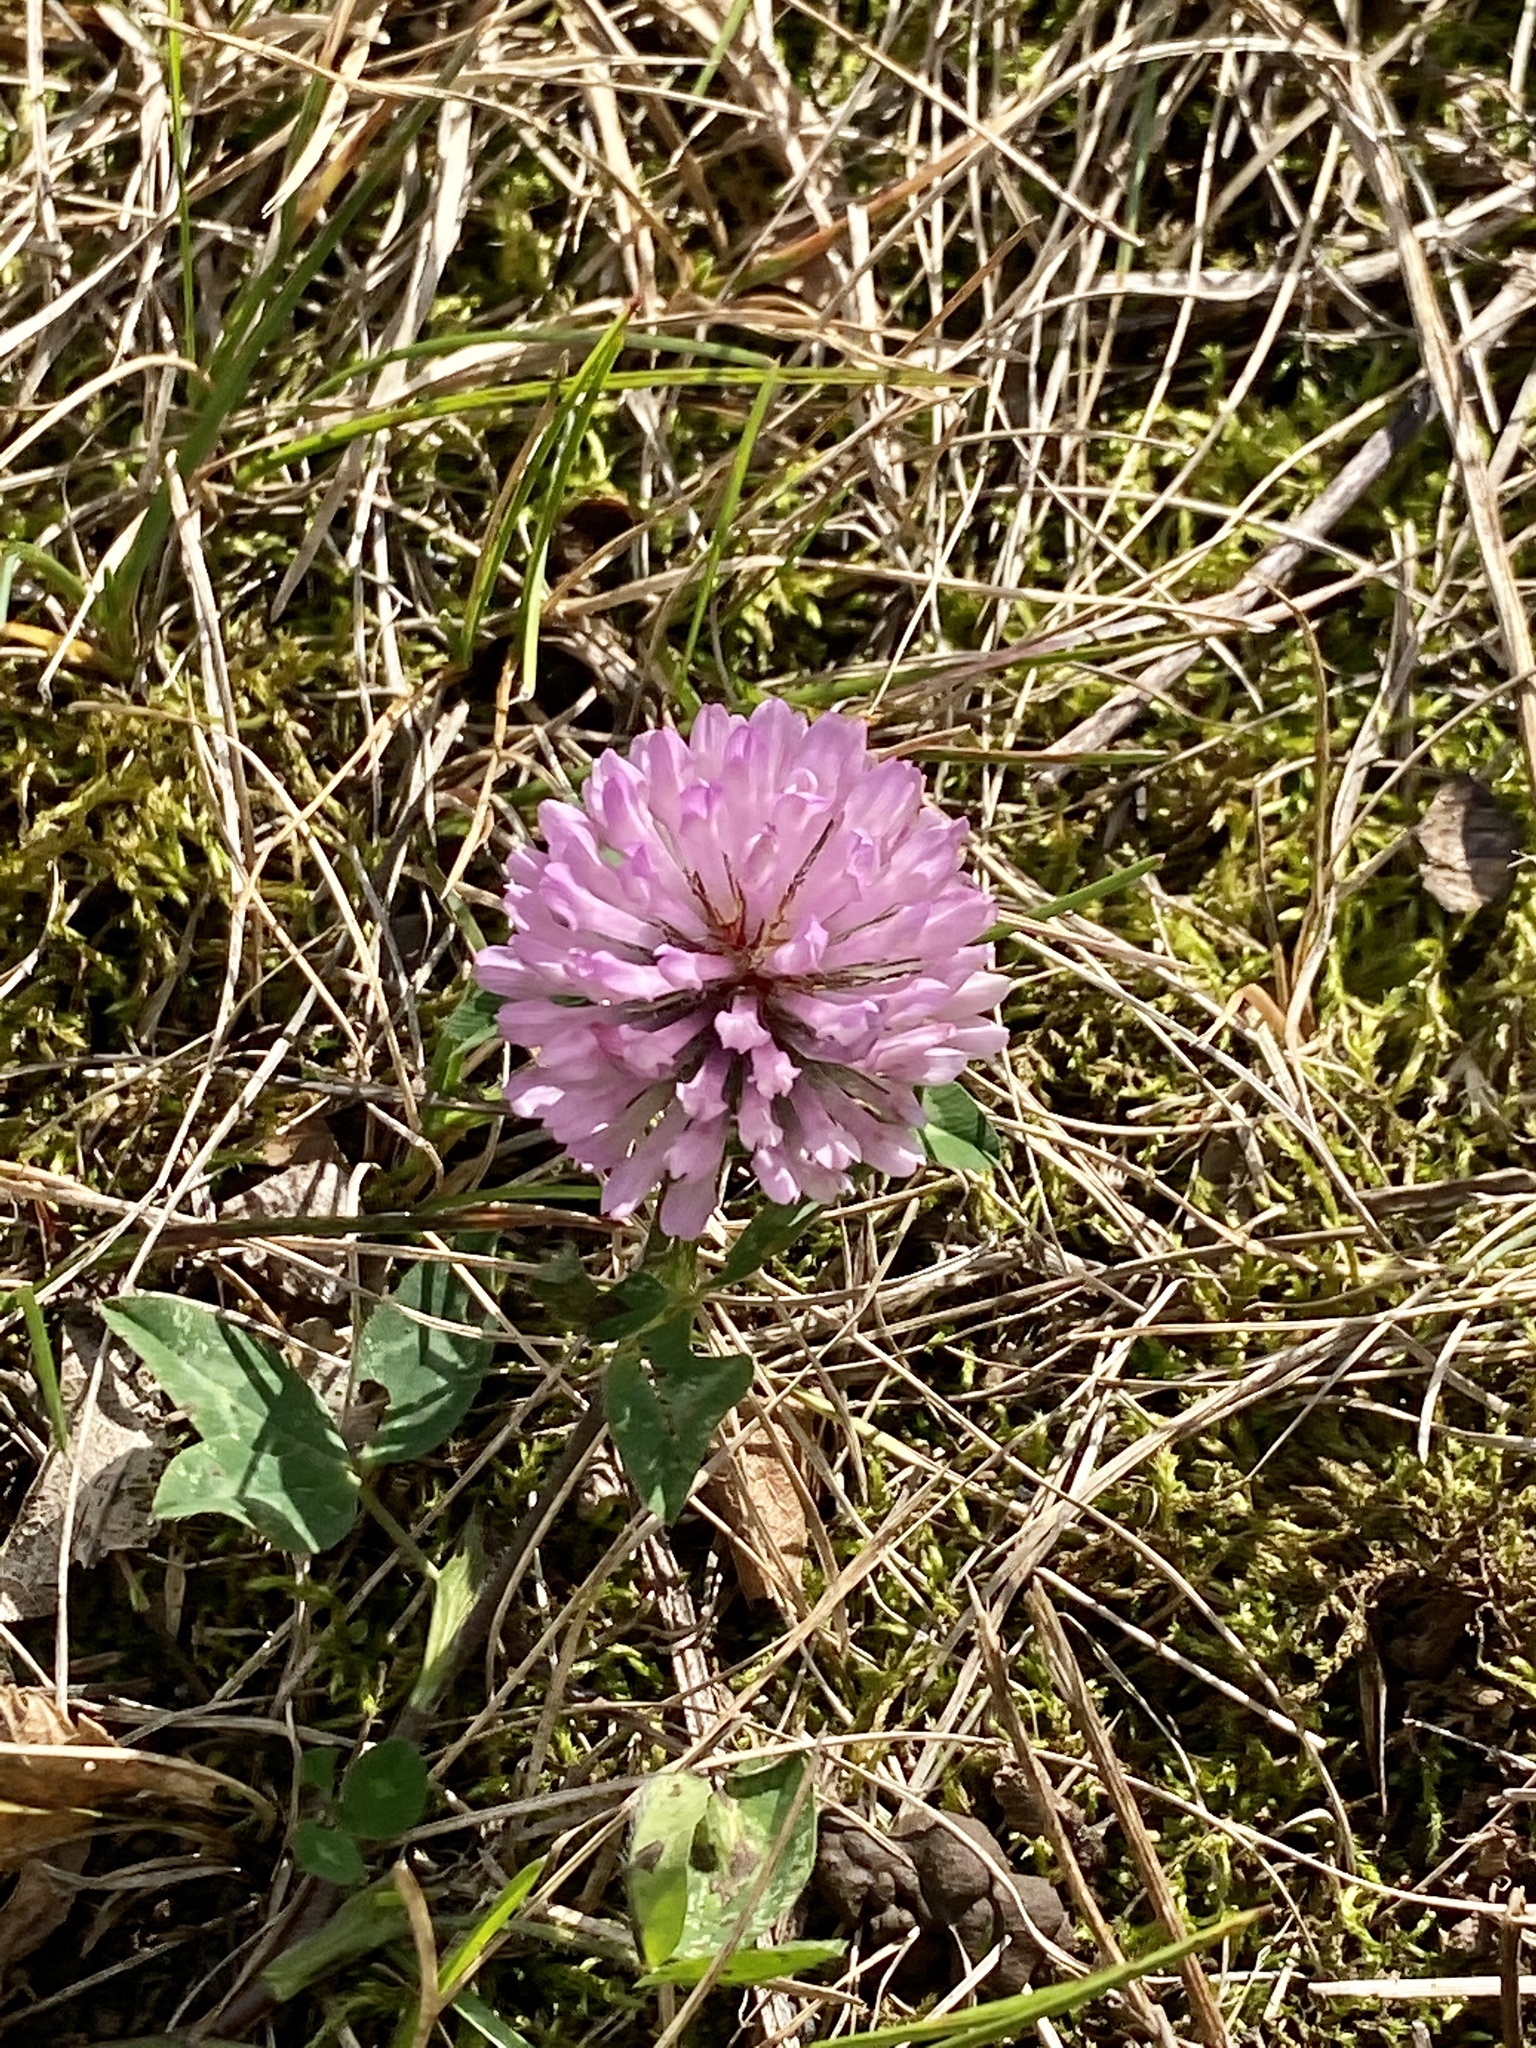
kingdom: Plantae
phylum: Tracheophyta
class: Magnoliopsida
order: Fabales
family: Fabaceae
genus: Trifolium
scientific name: Trifolium pratense
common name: Red clover
